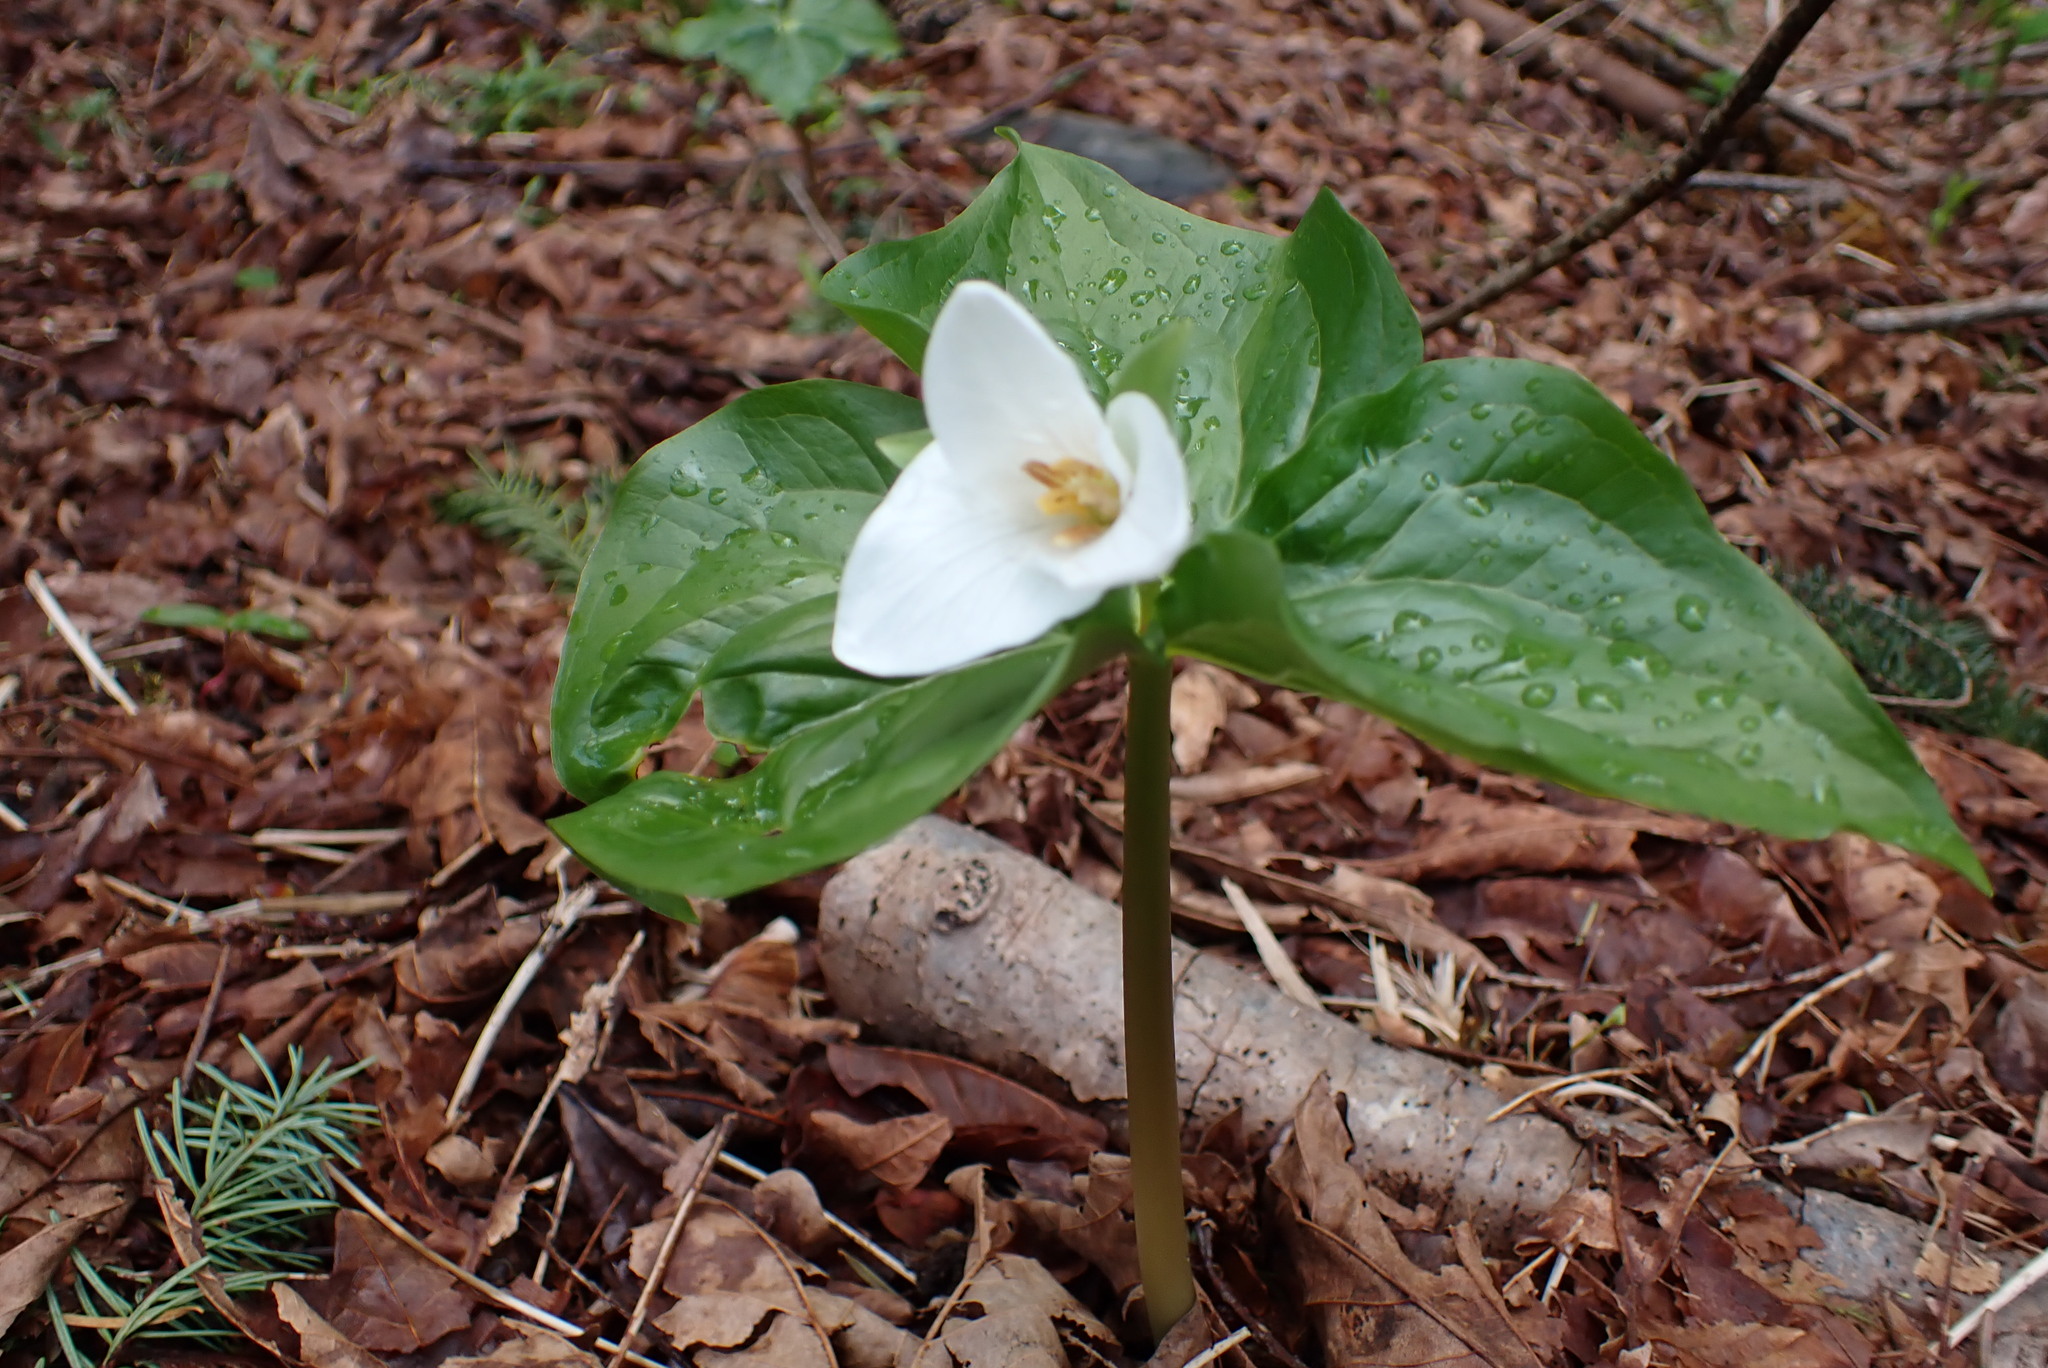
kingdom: Plantae
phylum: Tracheophyta
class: Liliopsida
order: Liliales
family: Melanthiaceae
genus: Trillium
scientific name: Trillium ovatum
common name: Pacific trillium
